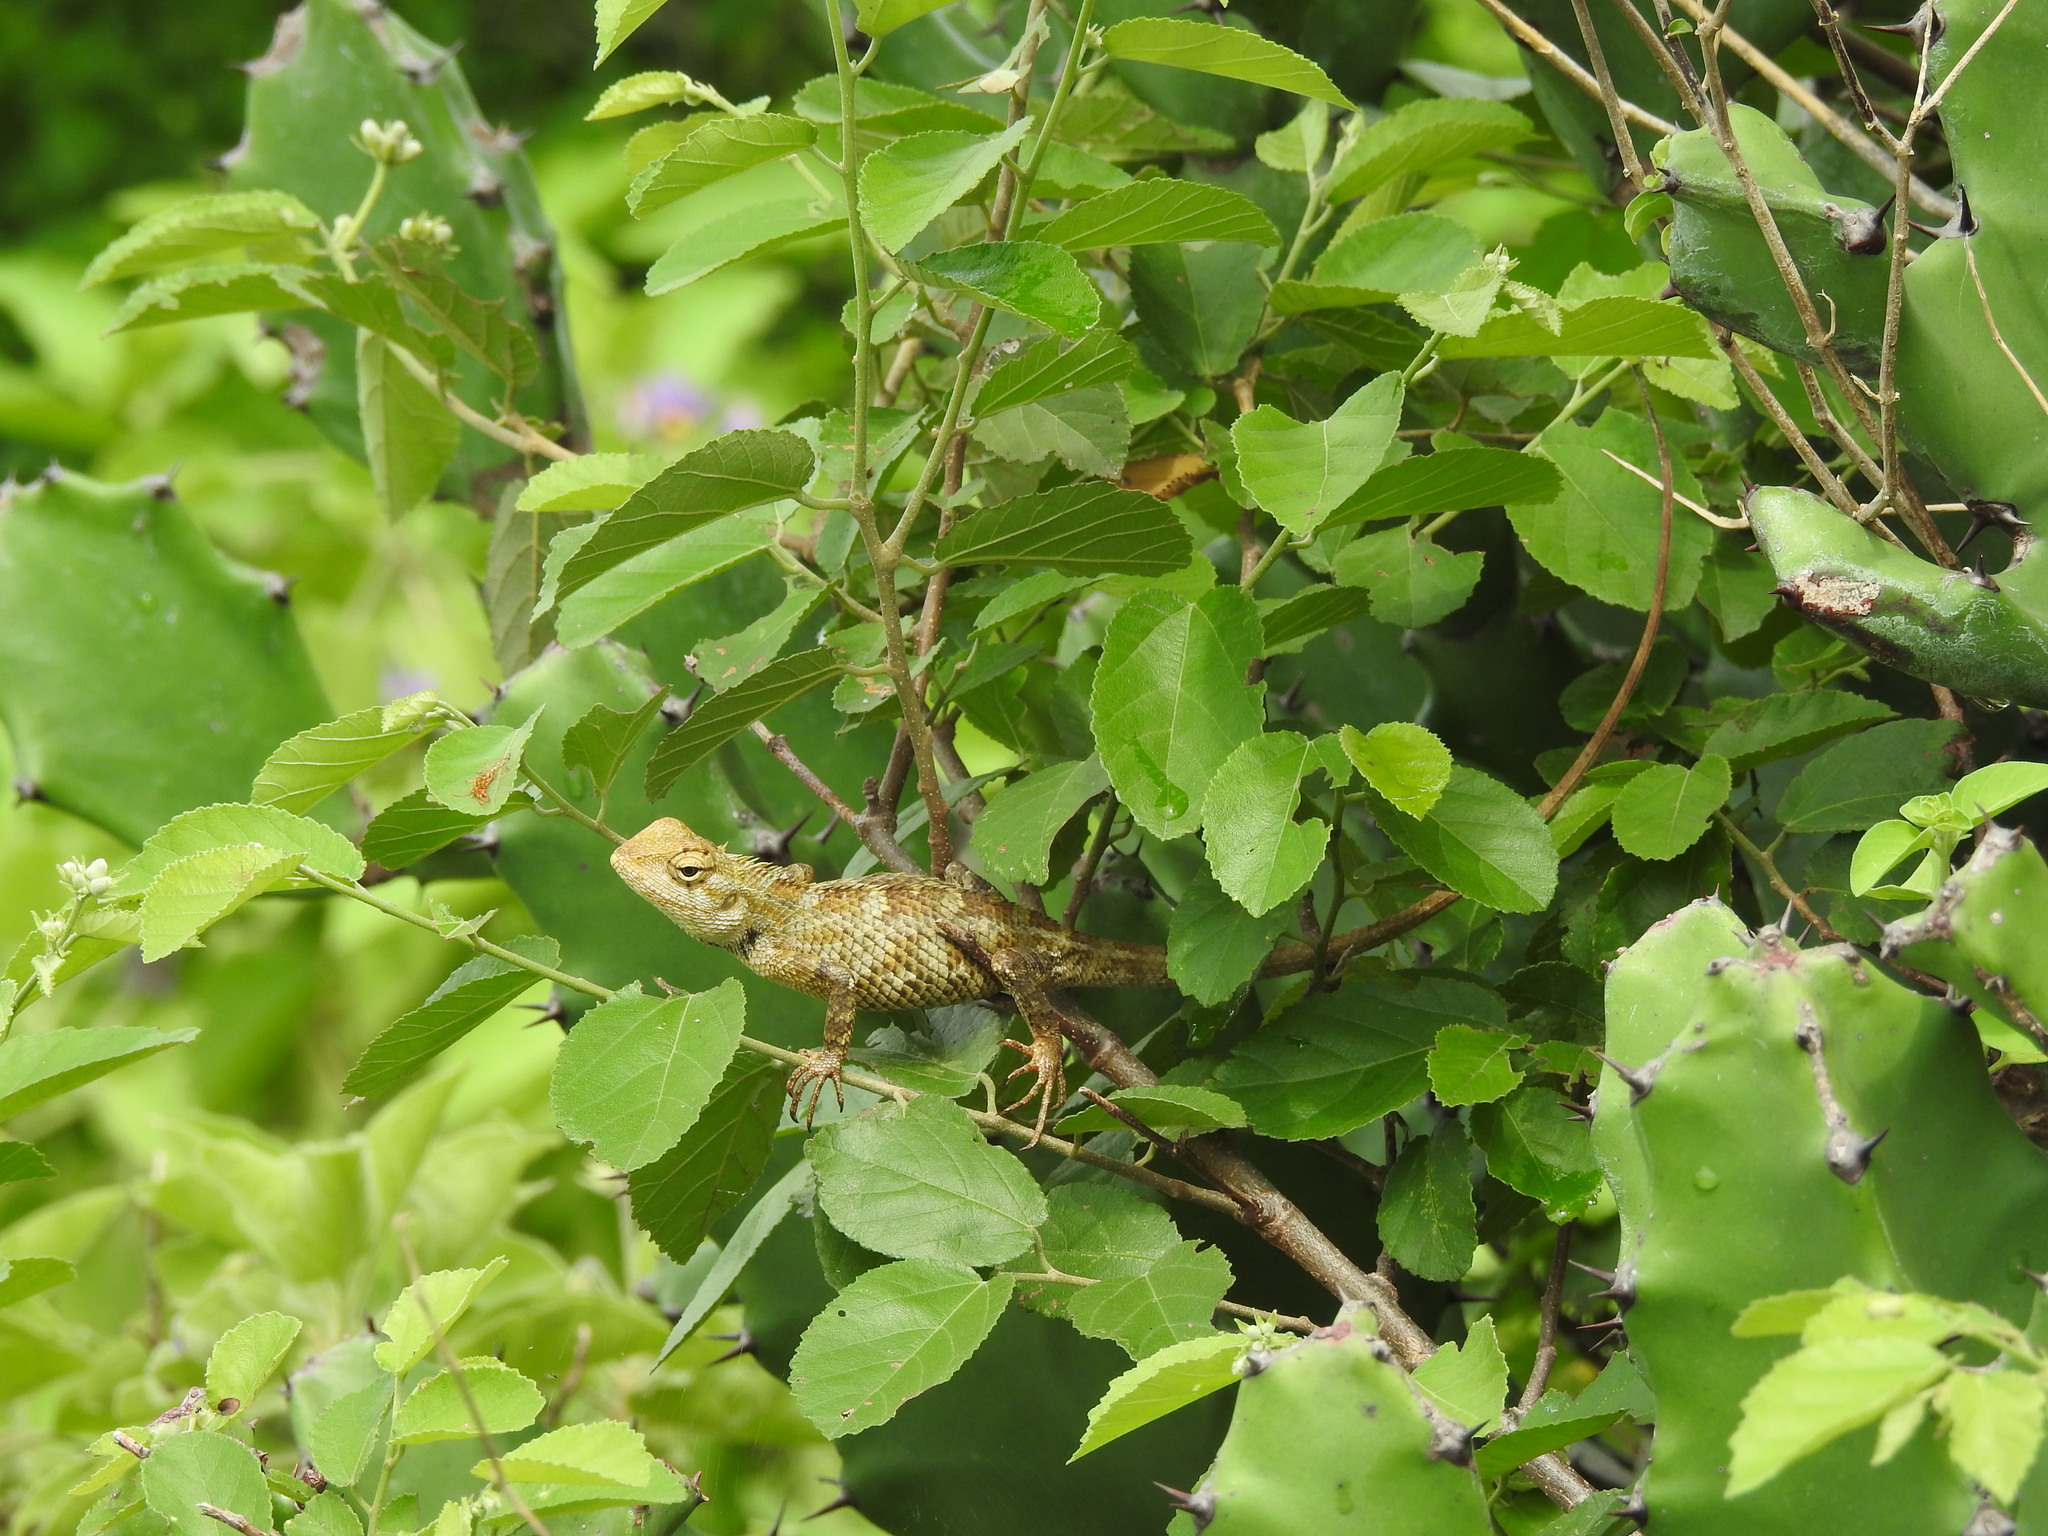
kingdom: Animalia
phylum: Chordata
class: Squamata
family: Agamidae
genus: Calotes
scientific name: Calotes versicolor
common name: Oriental garden lizard
